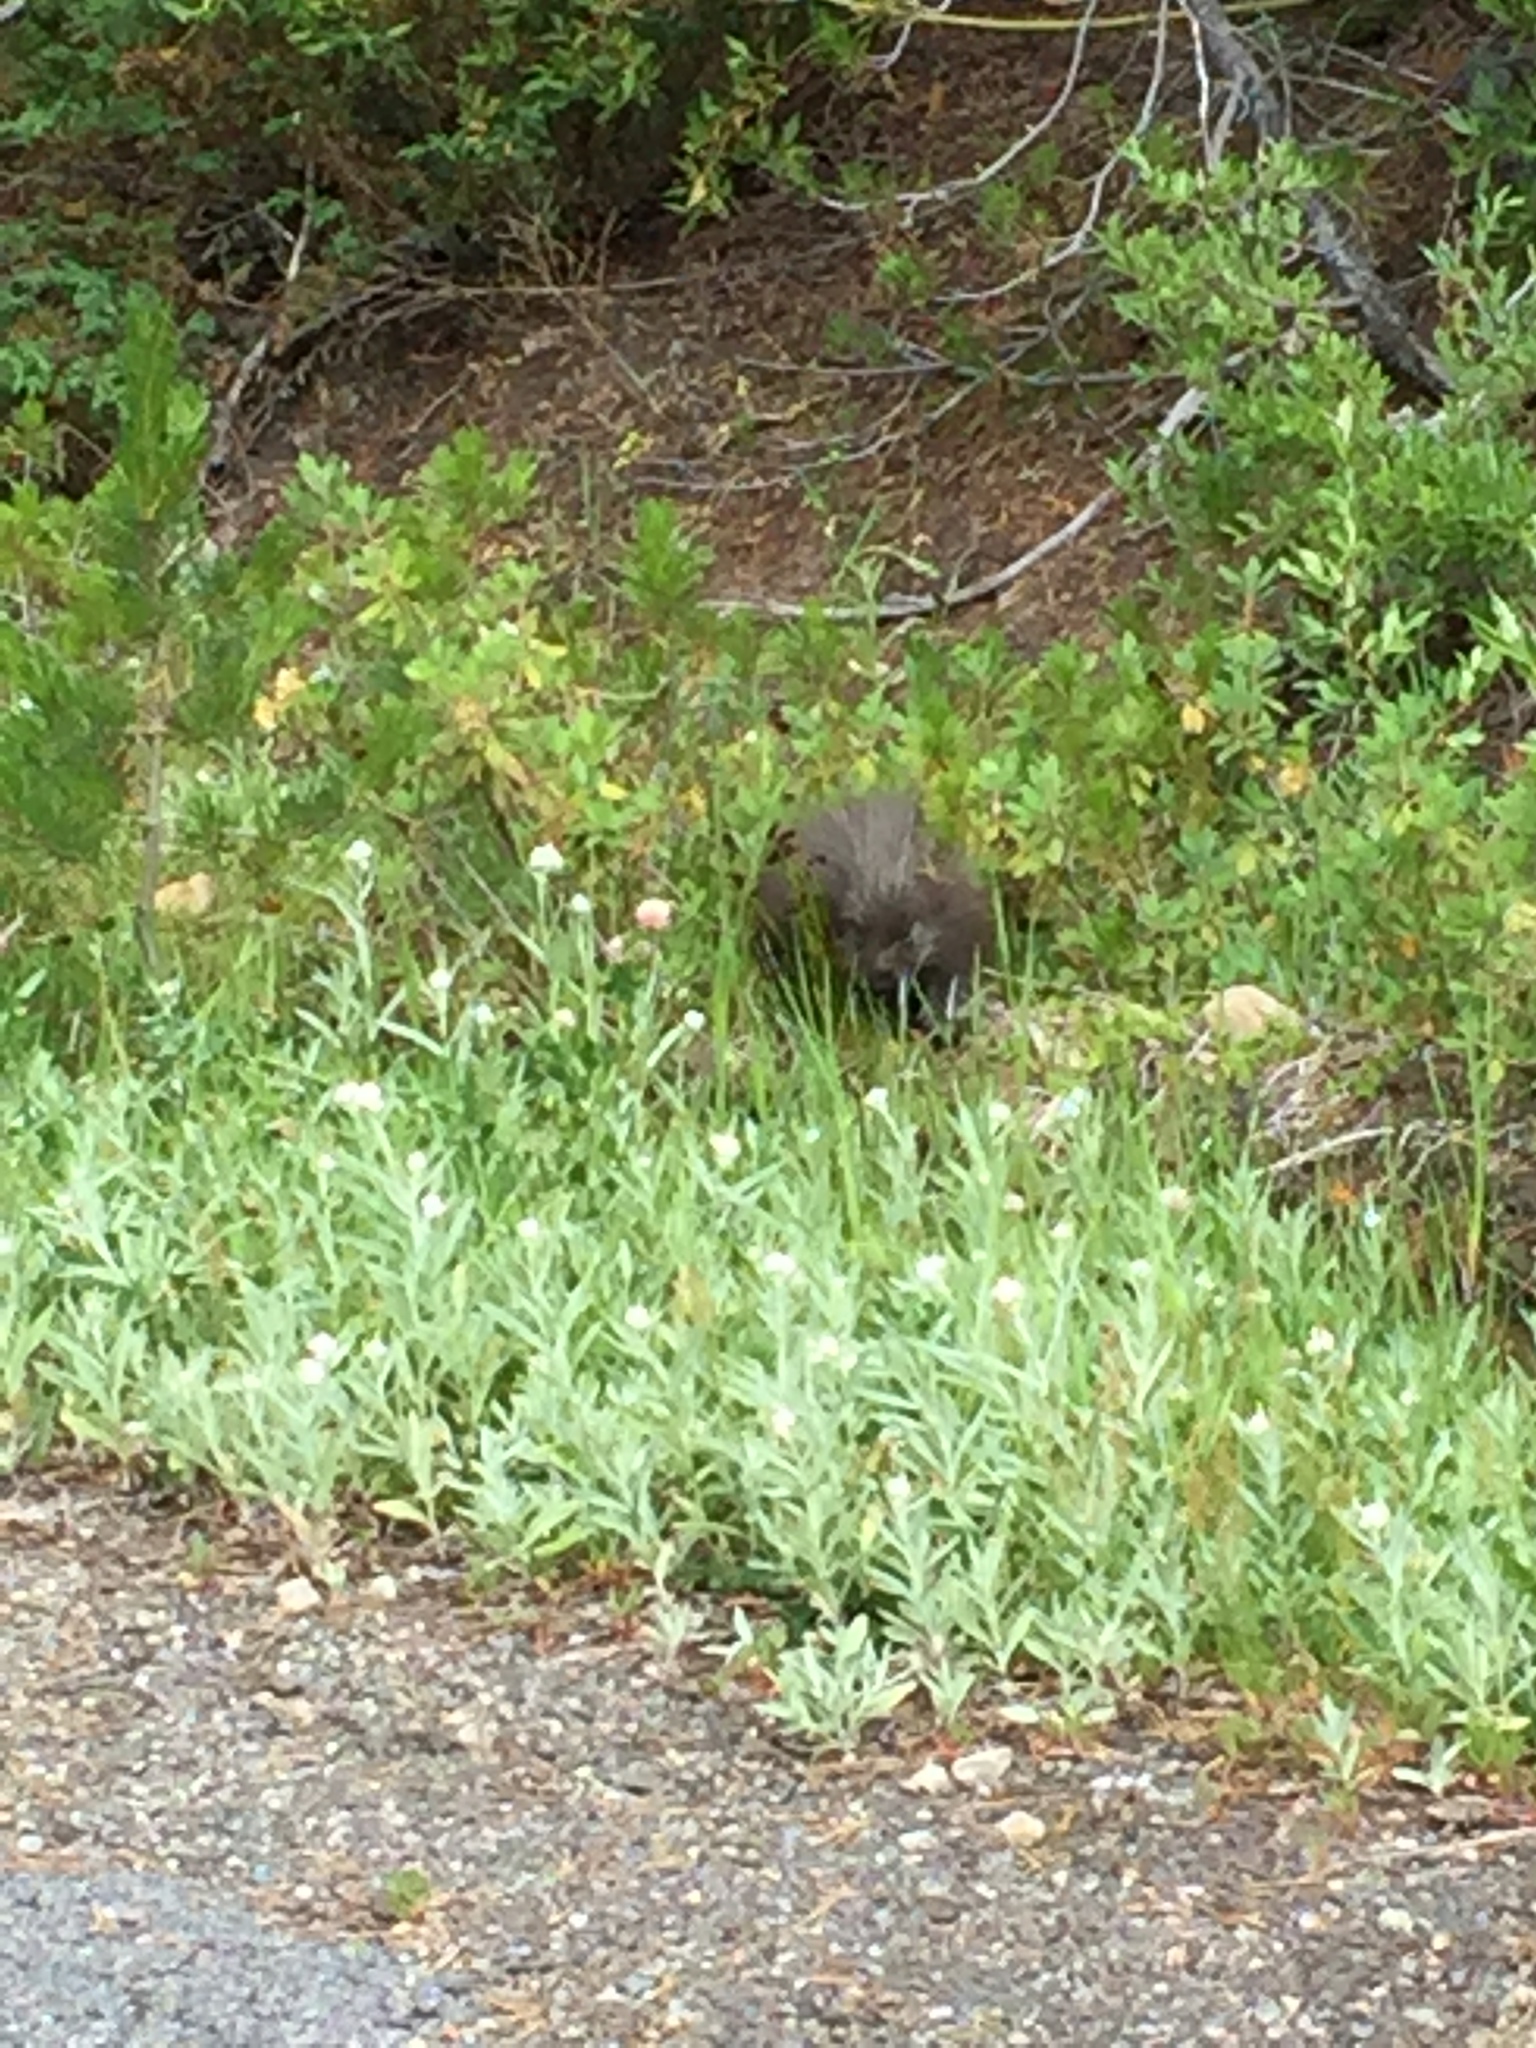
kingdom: Animalia
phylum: Chordata
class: Mammalia
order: Rodentia
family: Erethizontidae
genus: Erethizon
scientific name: Erethizon dorsatus
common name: North american porcupine
